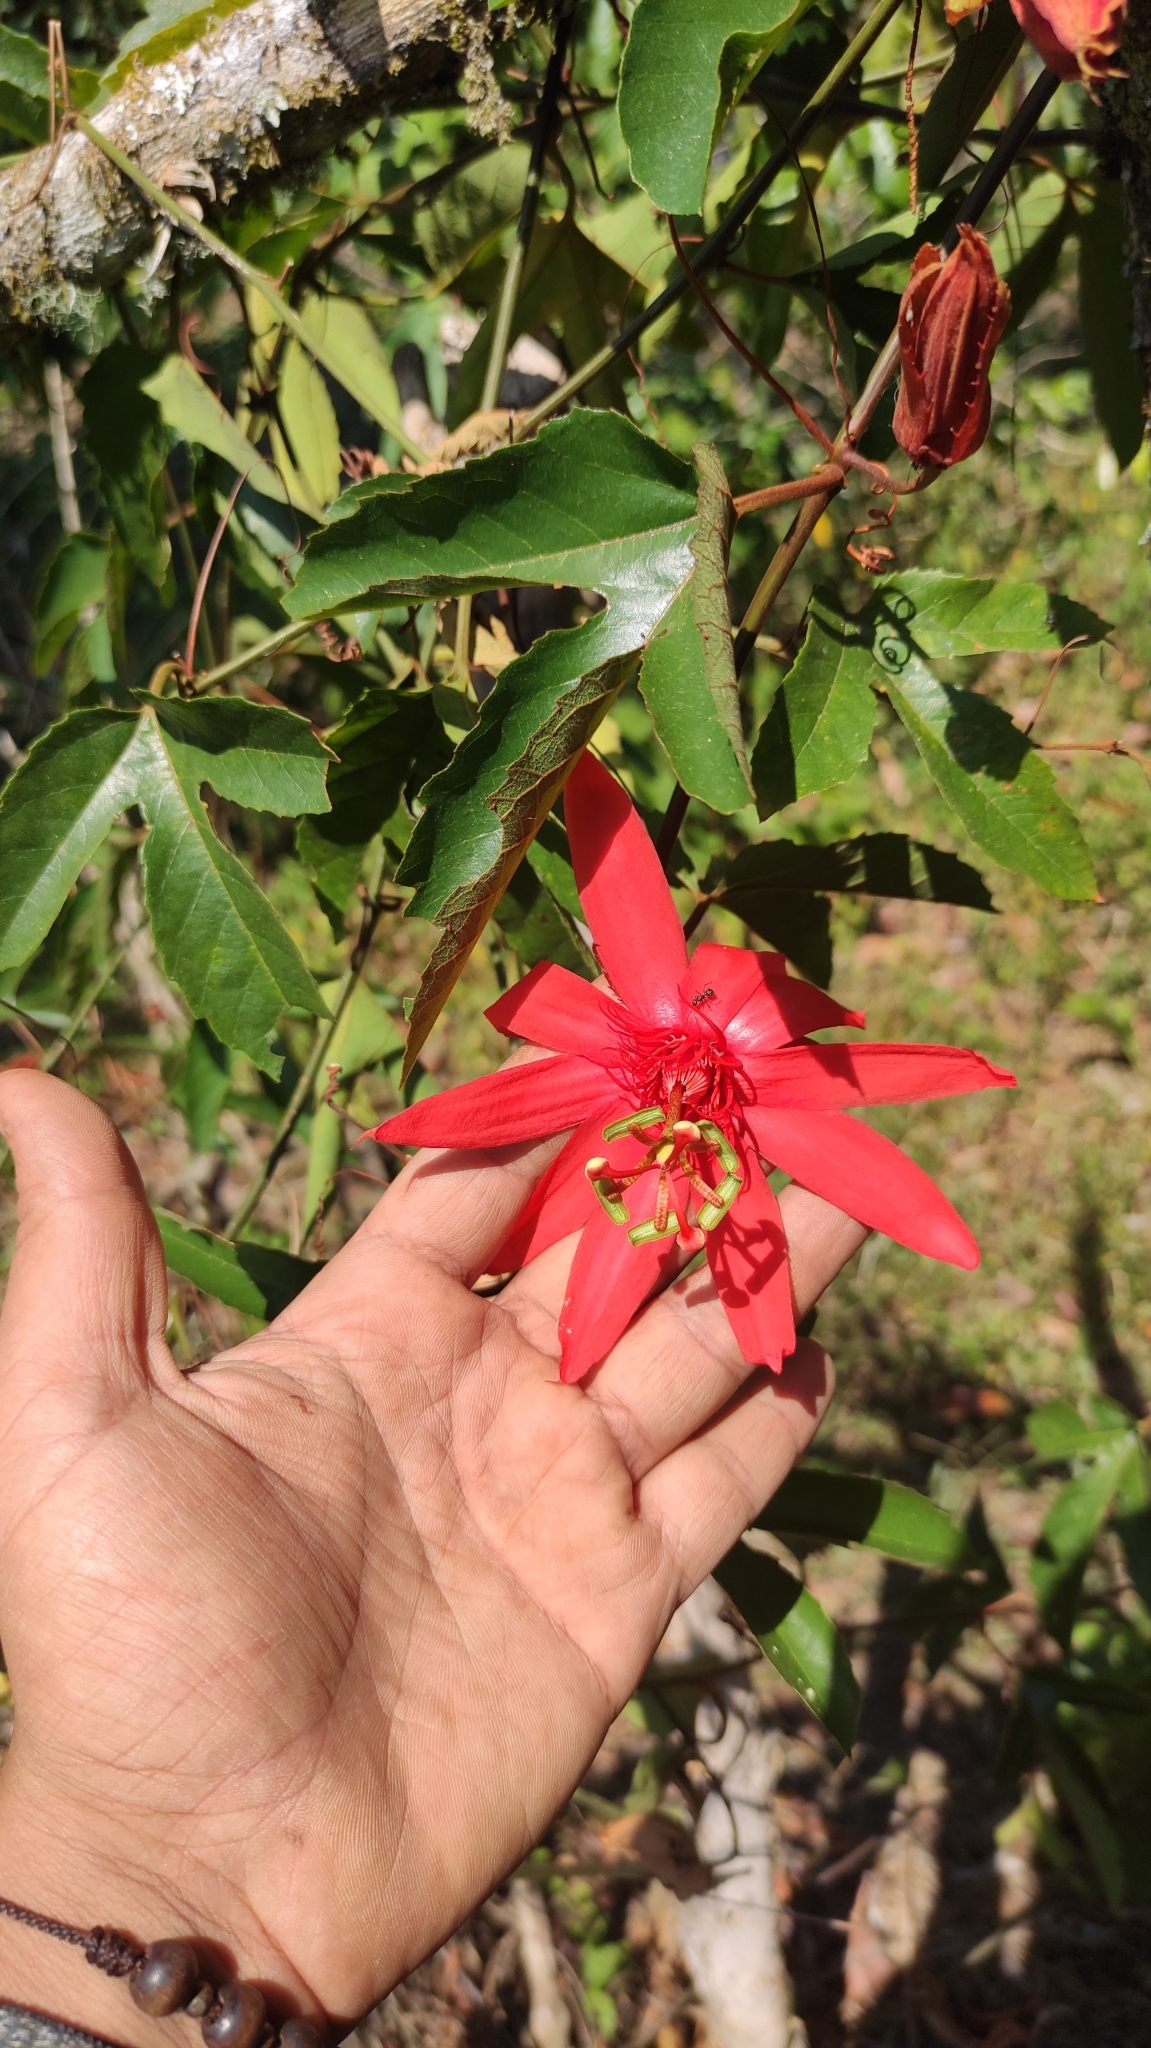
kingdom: Plantae
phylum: Tracheophyta
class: Magnoliopsida
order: Malpighiales
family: Passifloraceae
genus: Passiflora
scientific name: Passiflora vitifolia
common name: Perfumed passionflower
